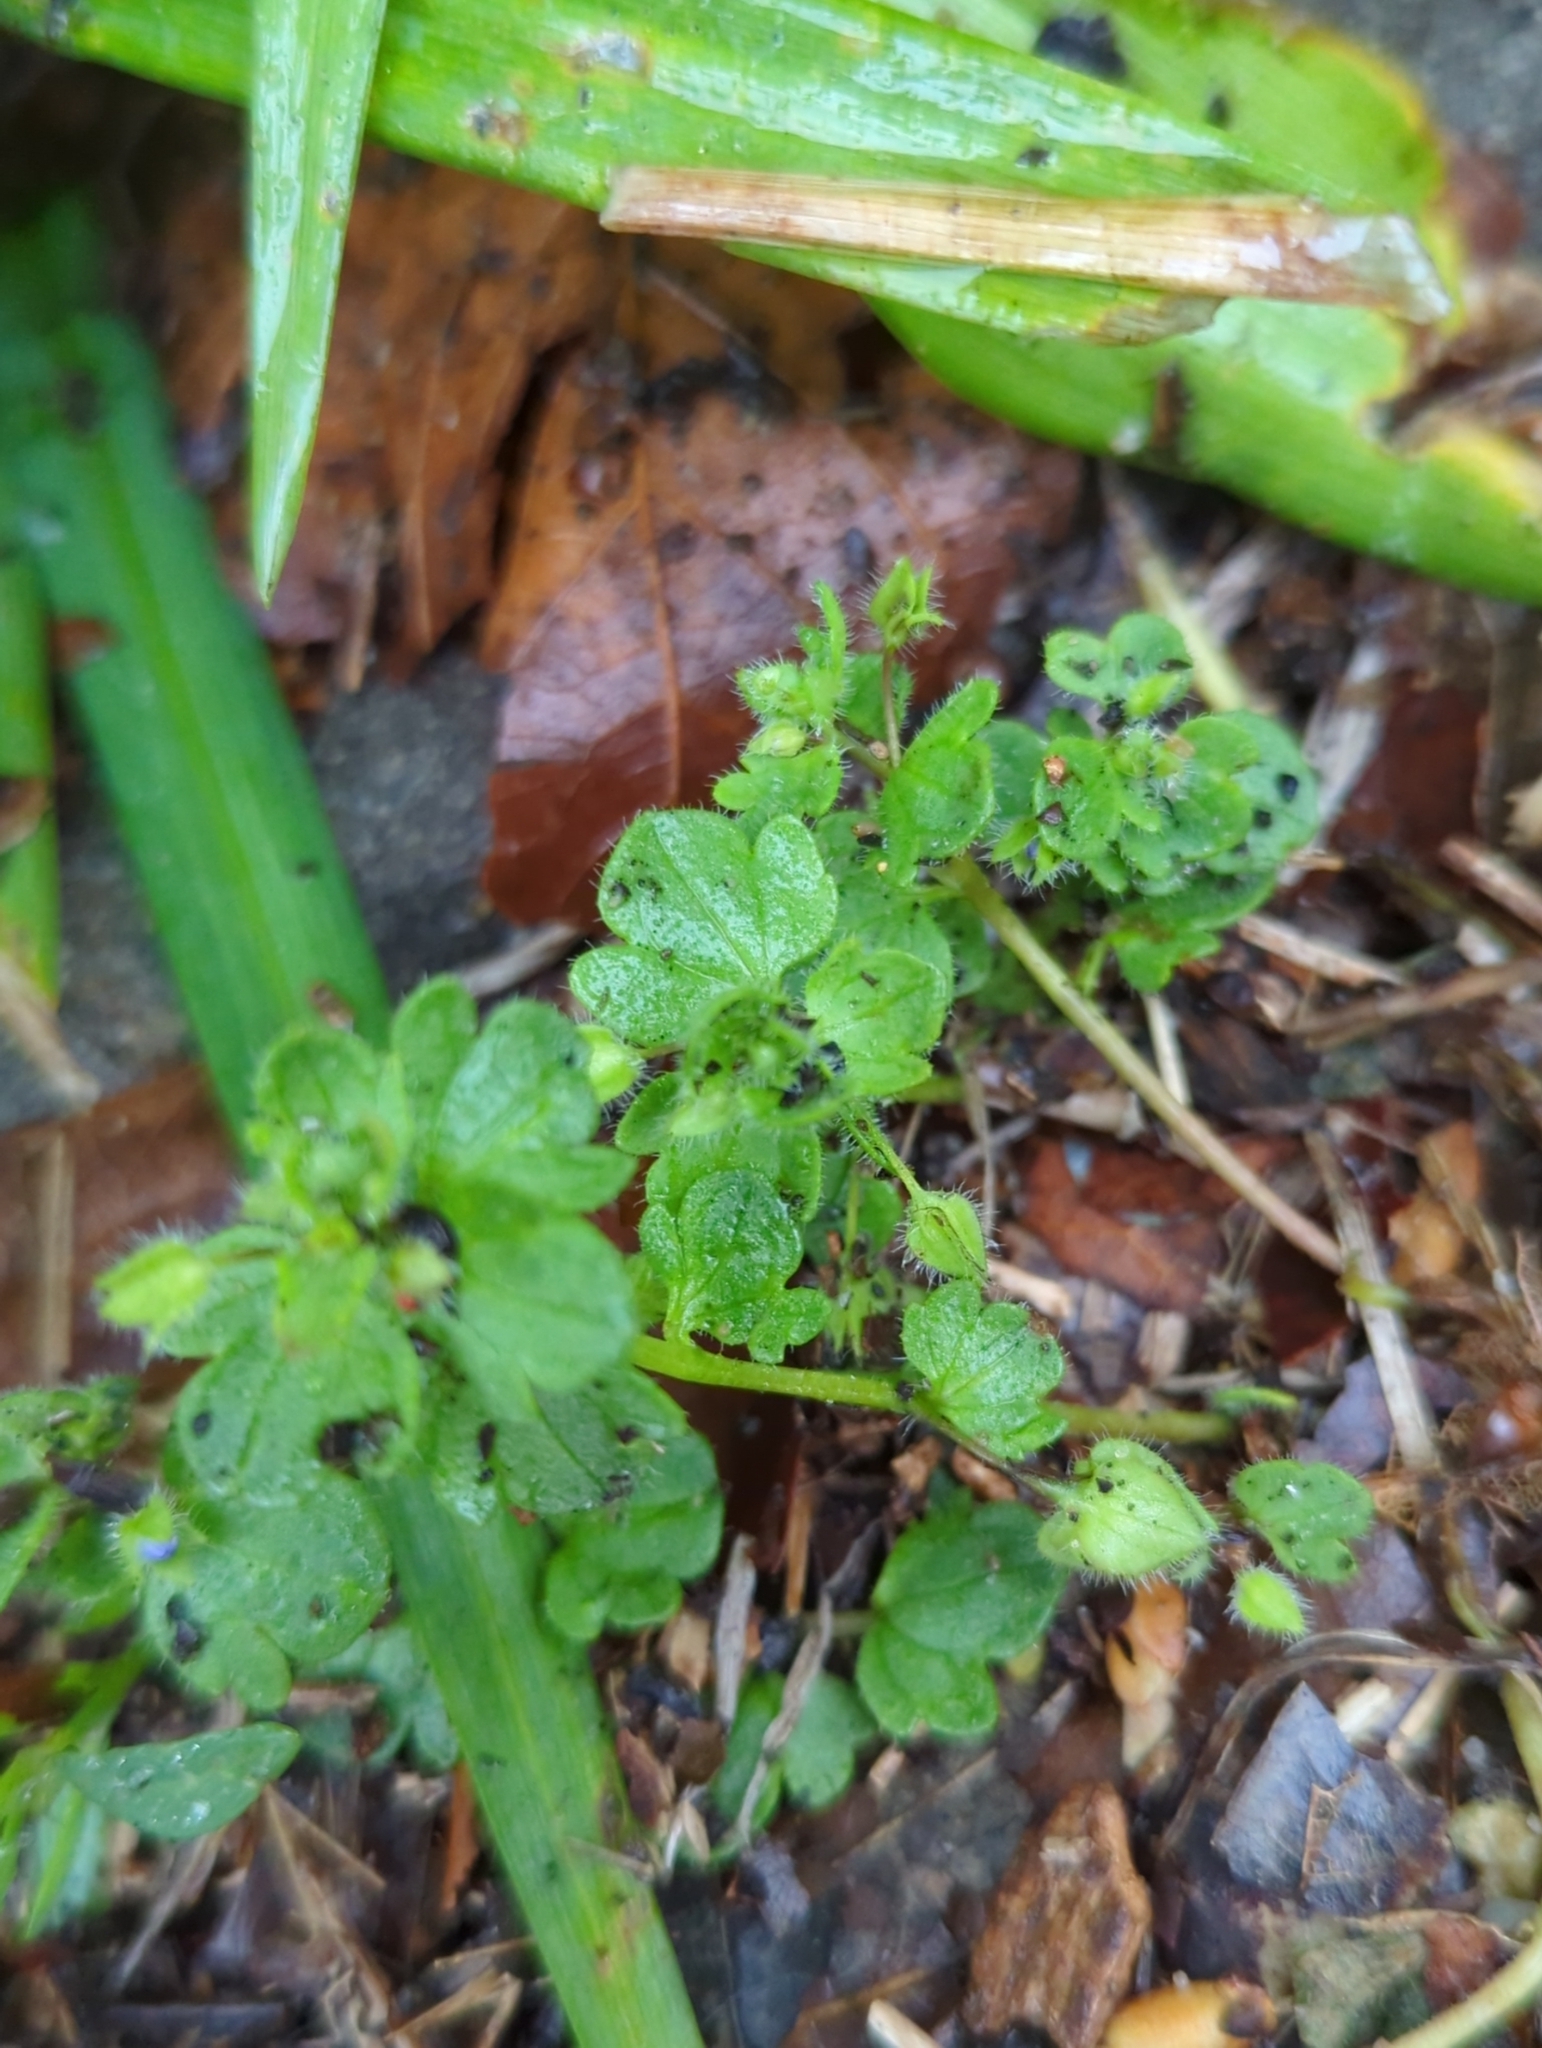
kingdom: Plantae
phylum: Tracheophyta
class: Magnoliopsida
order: Lamiales
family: Plantaginaceae
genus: Veronica
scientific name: Veronica hederifolia
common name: Ivy-leaved speedwell
